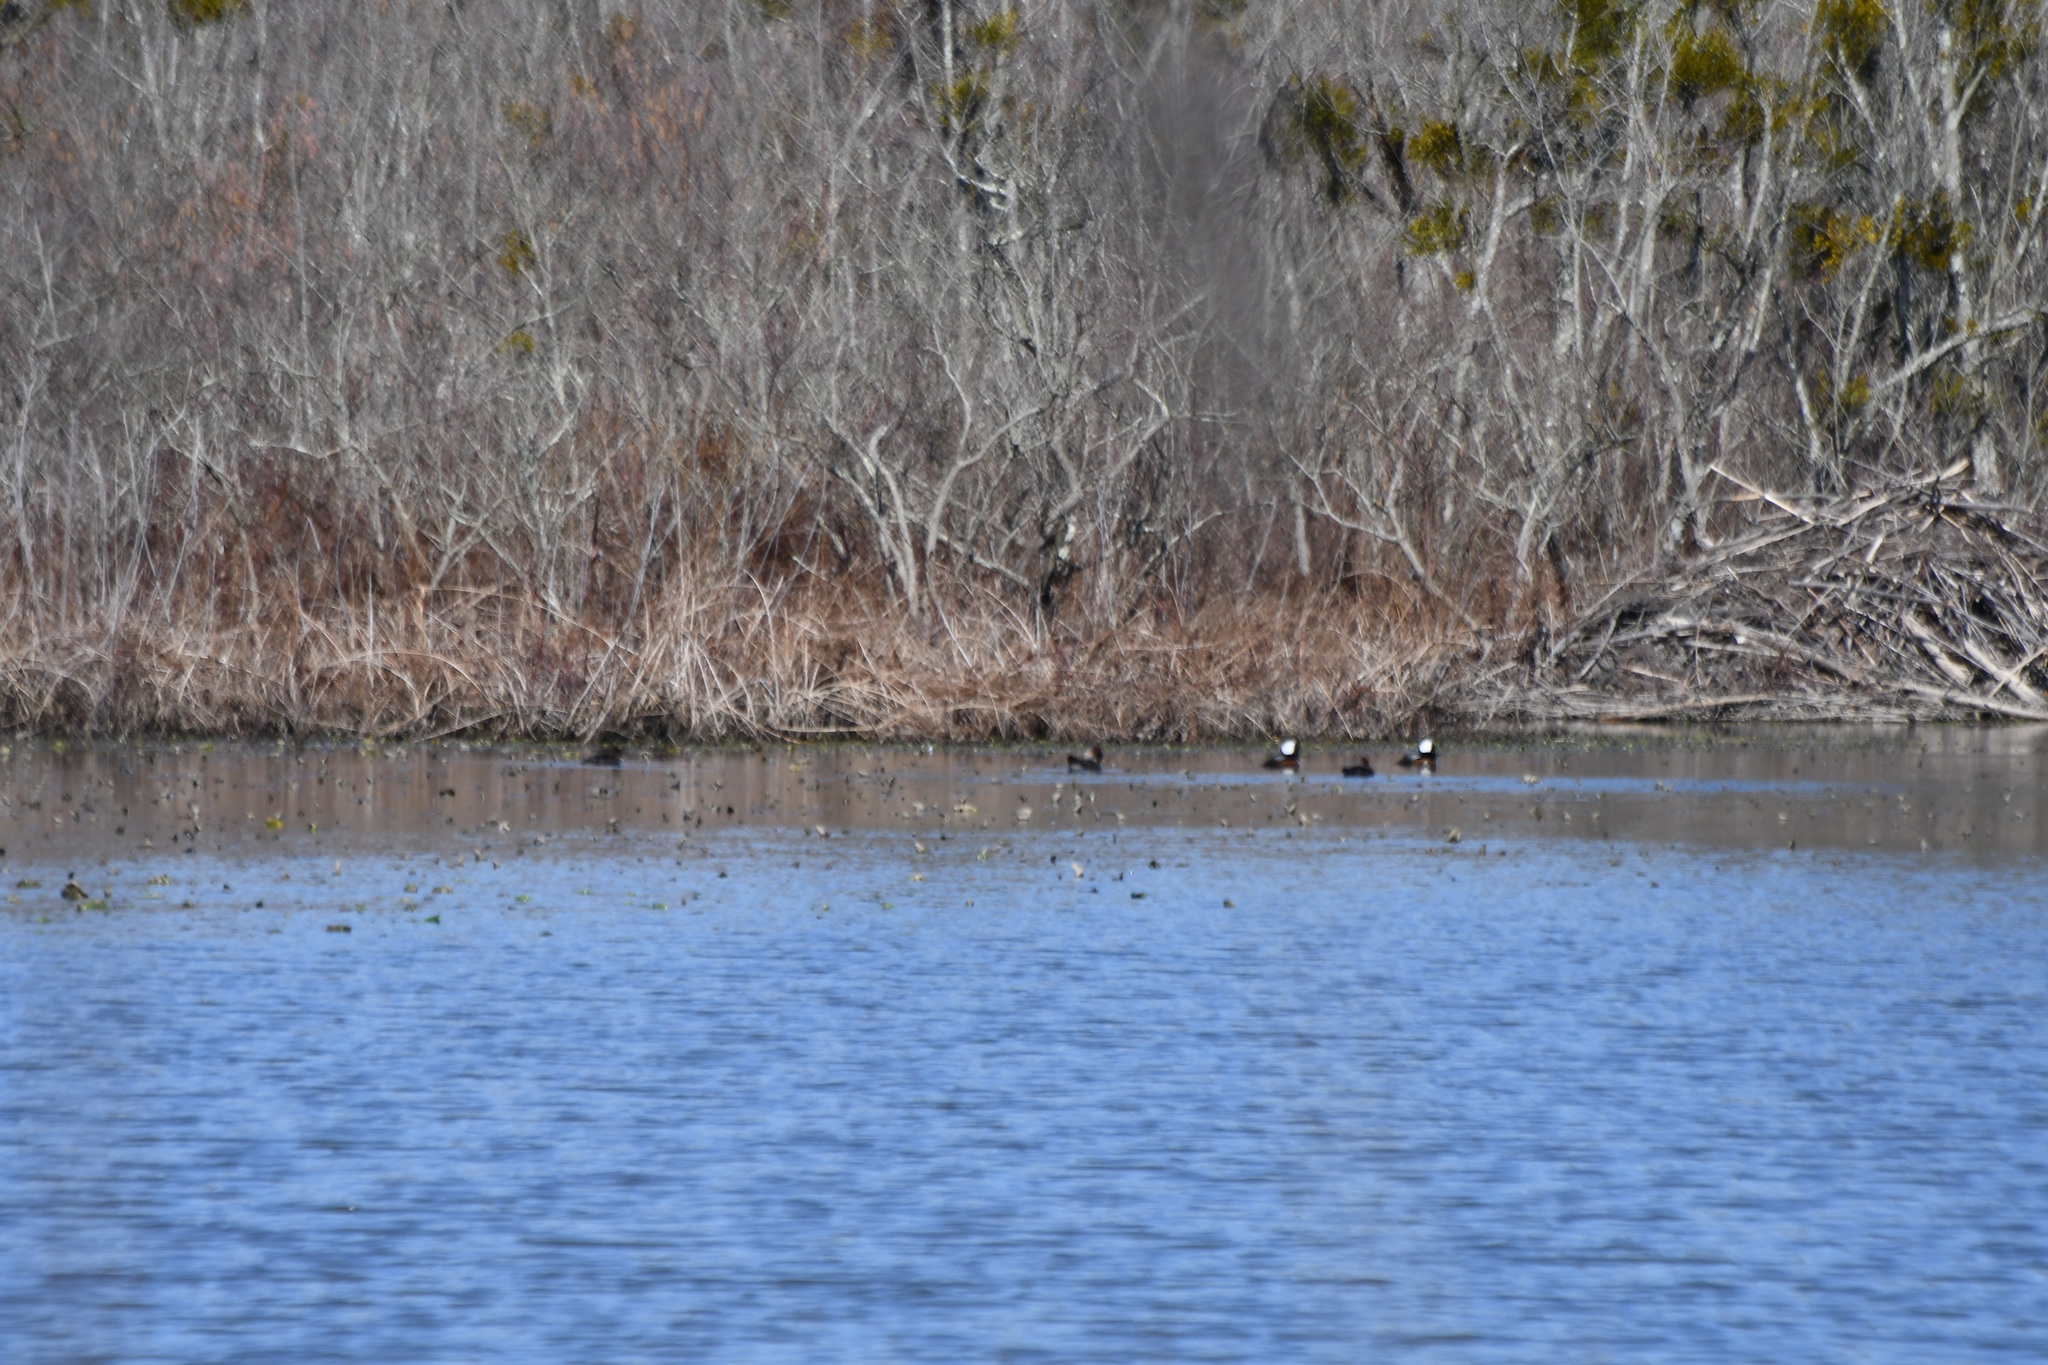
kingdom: Animalia
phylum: Chordata
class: Aves
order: Anseriformes
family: Anatidae
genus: Lophodytes
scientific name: Lophodytes cucullatus
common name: Hooded merganser
